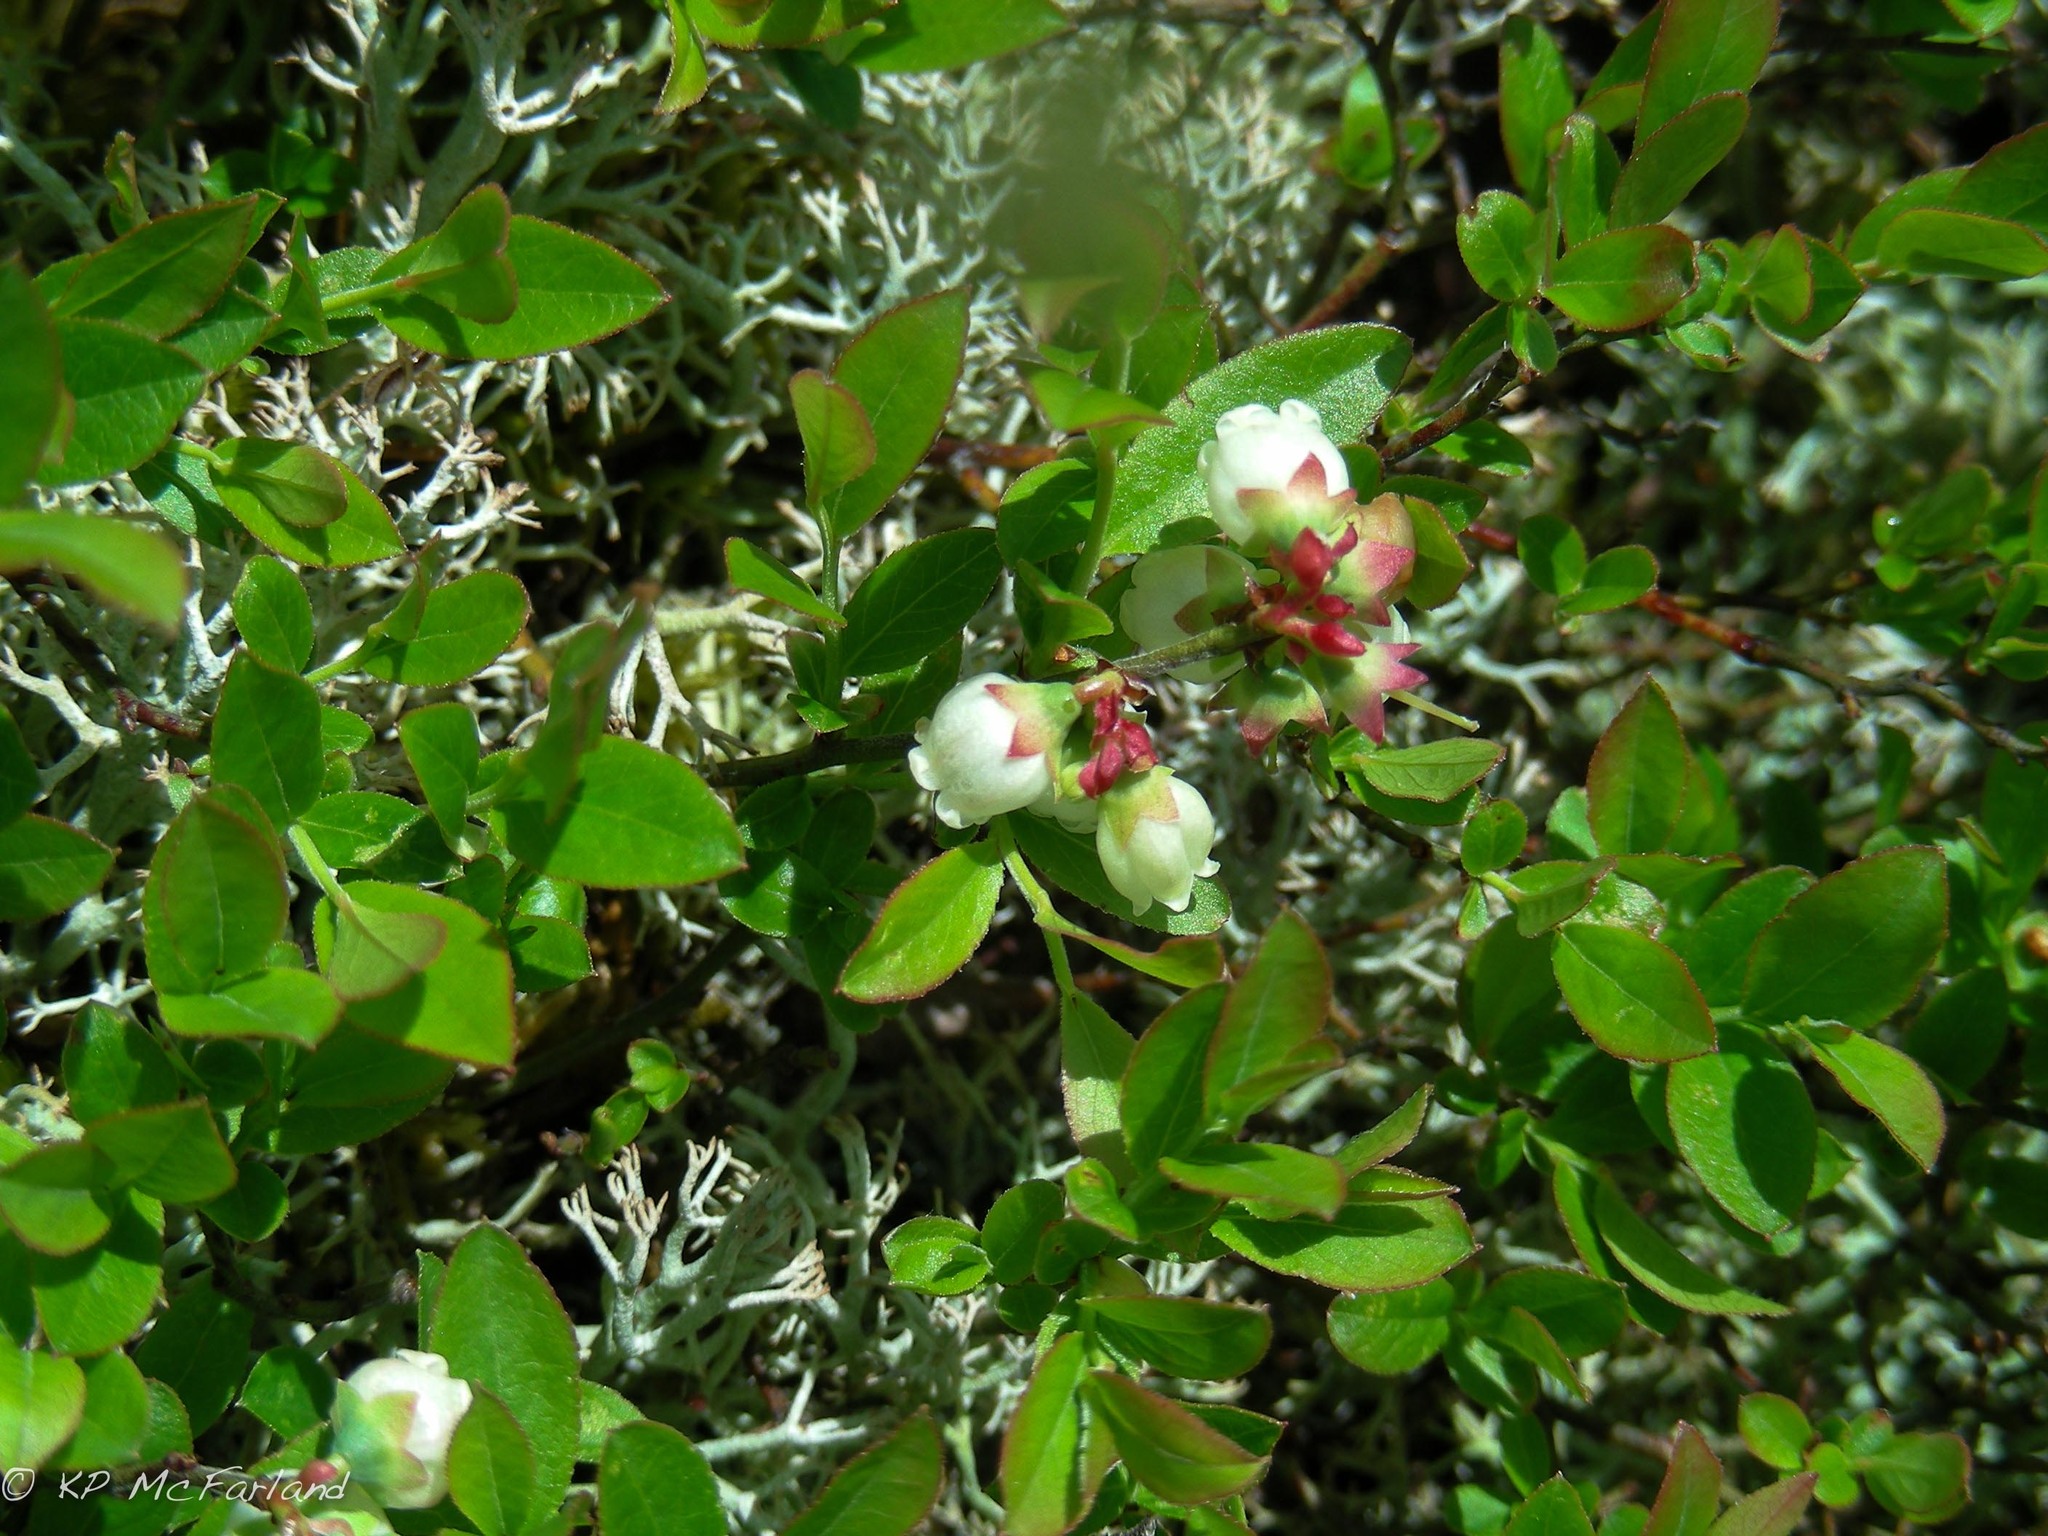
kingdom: Plantae
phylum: Tracheophyta
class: Magnoliopsida
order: Ericales
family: Ericaceae
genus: Vaccinium
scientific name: Vaccinium angustifolium
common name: Early lowbush blueberry
